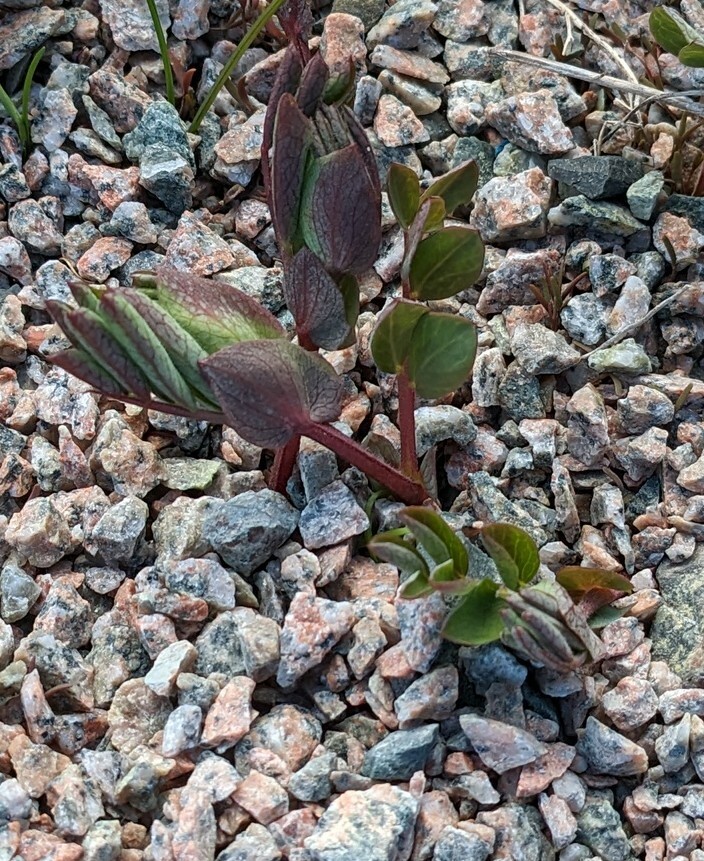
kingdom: Plantae
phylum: Tracheophyta
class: Magnoliopsida
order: Fabales
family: Fabaceae
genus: Lathyrus
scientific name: Lathyrus japonicus
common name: Sea pea
